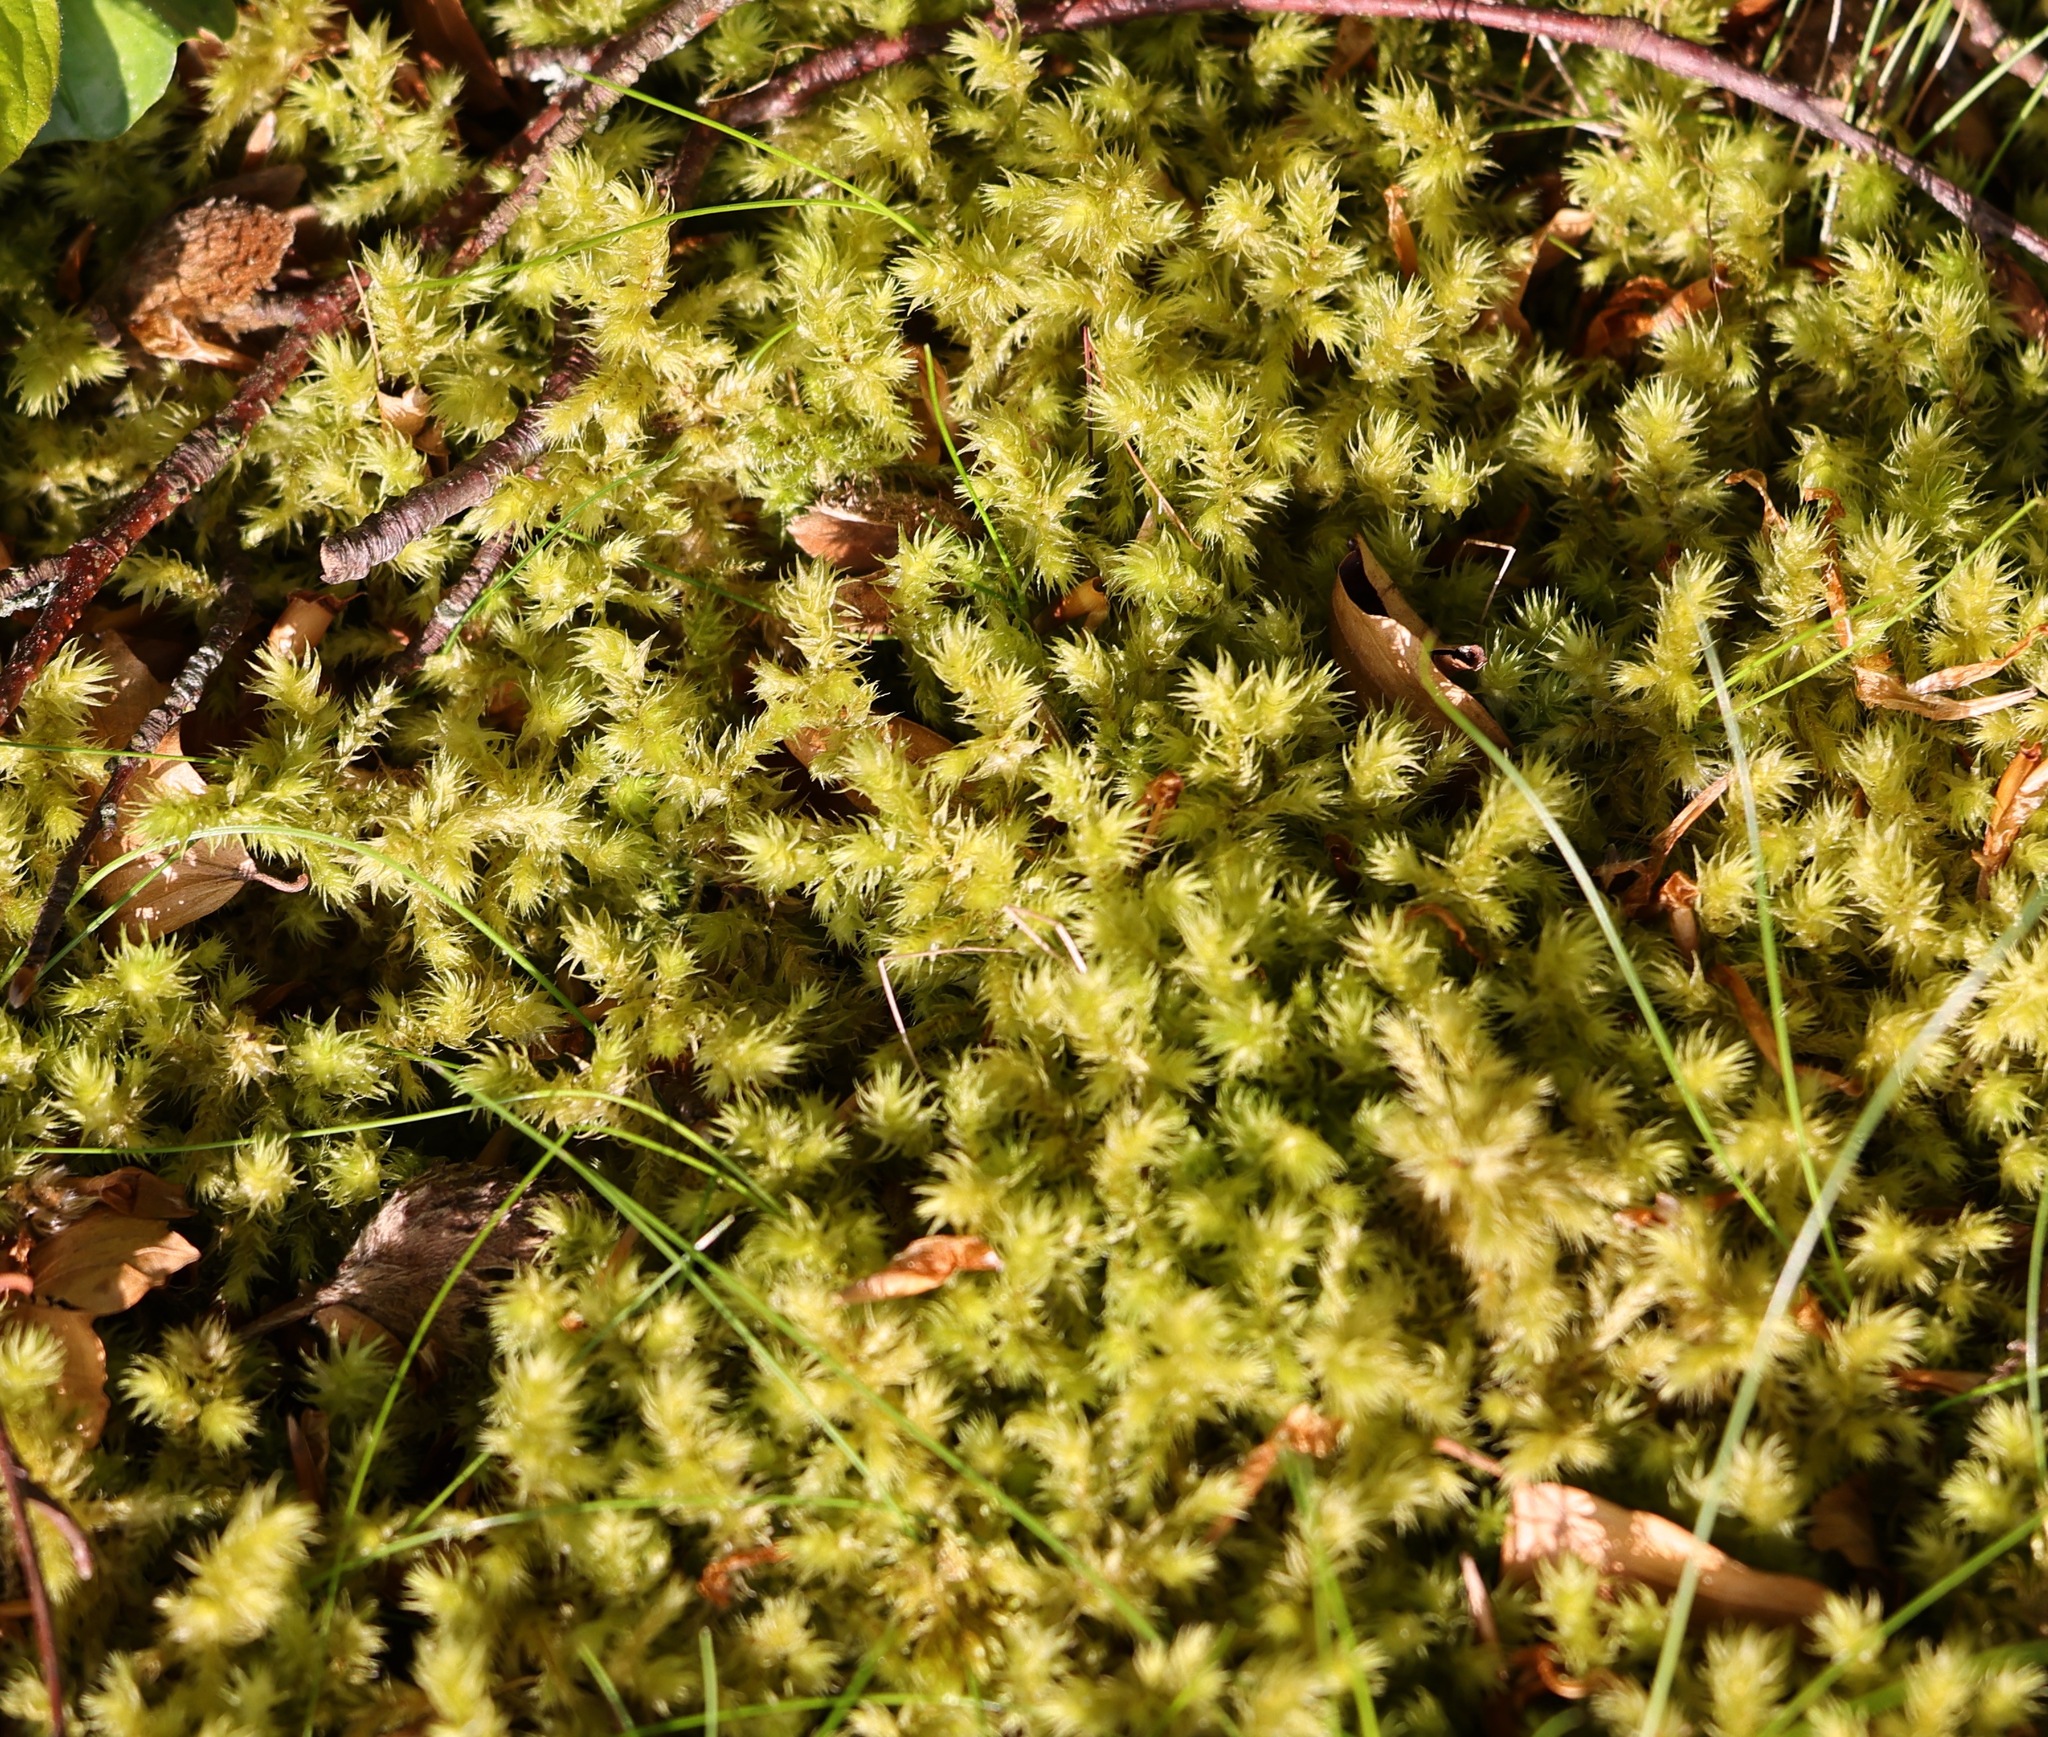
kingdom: Plantae
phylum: Bryophyta
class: Bryopsida
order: Hypnales
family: Hylocomiaceae
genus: Hylocomiadelphus
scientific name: Hylocomiadelphus triquetrus
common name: Rough goose neck moss
